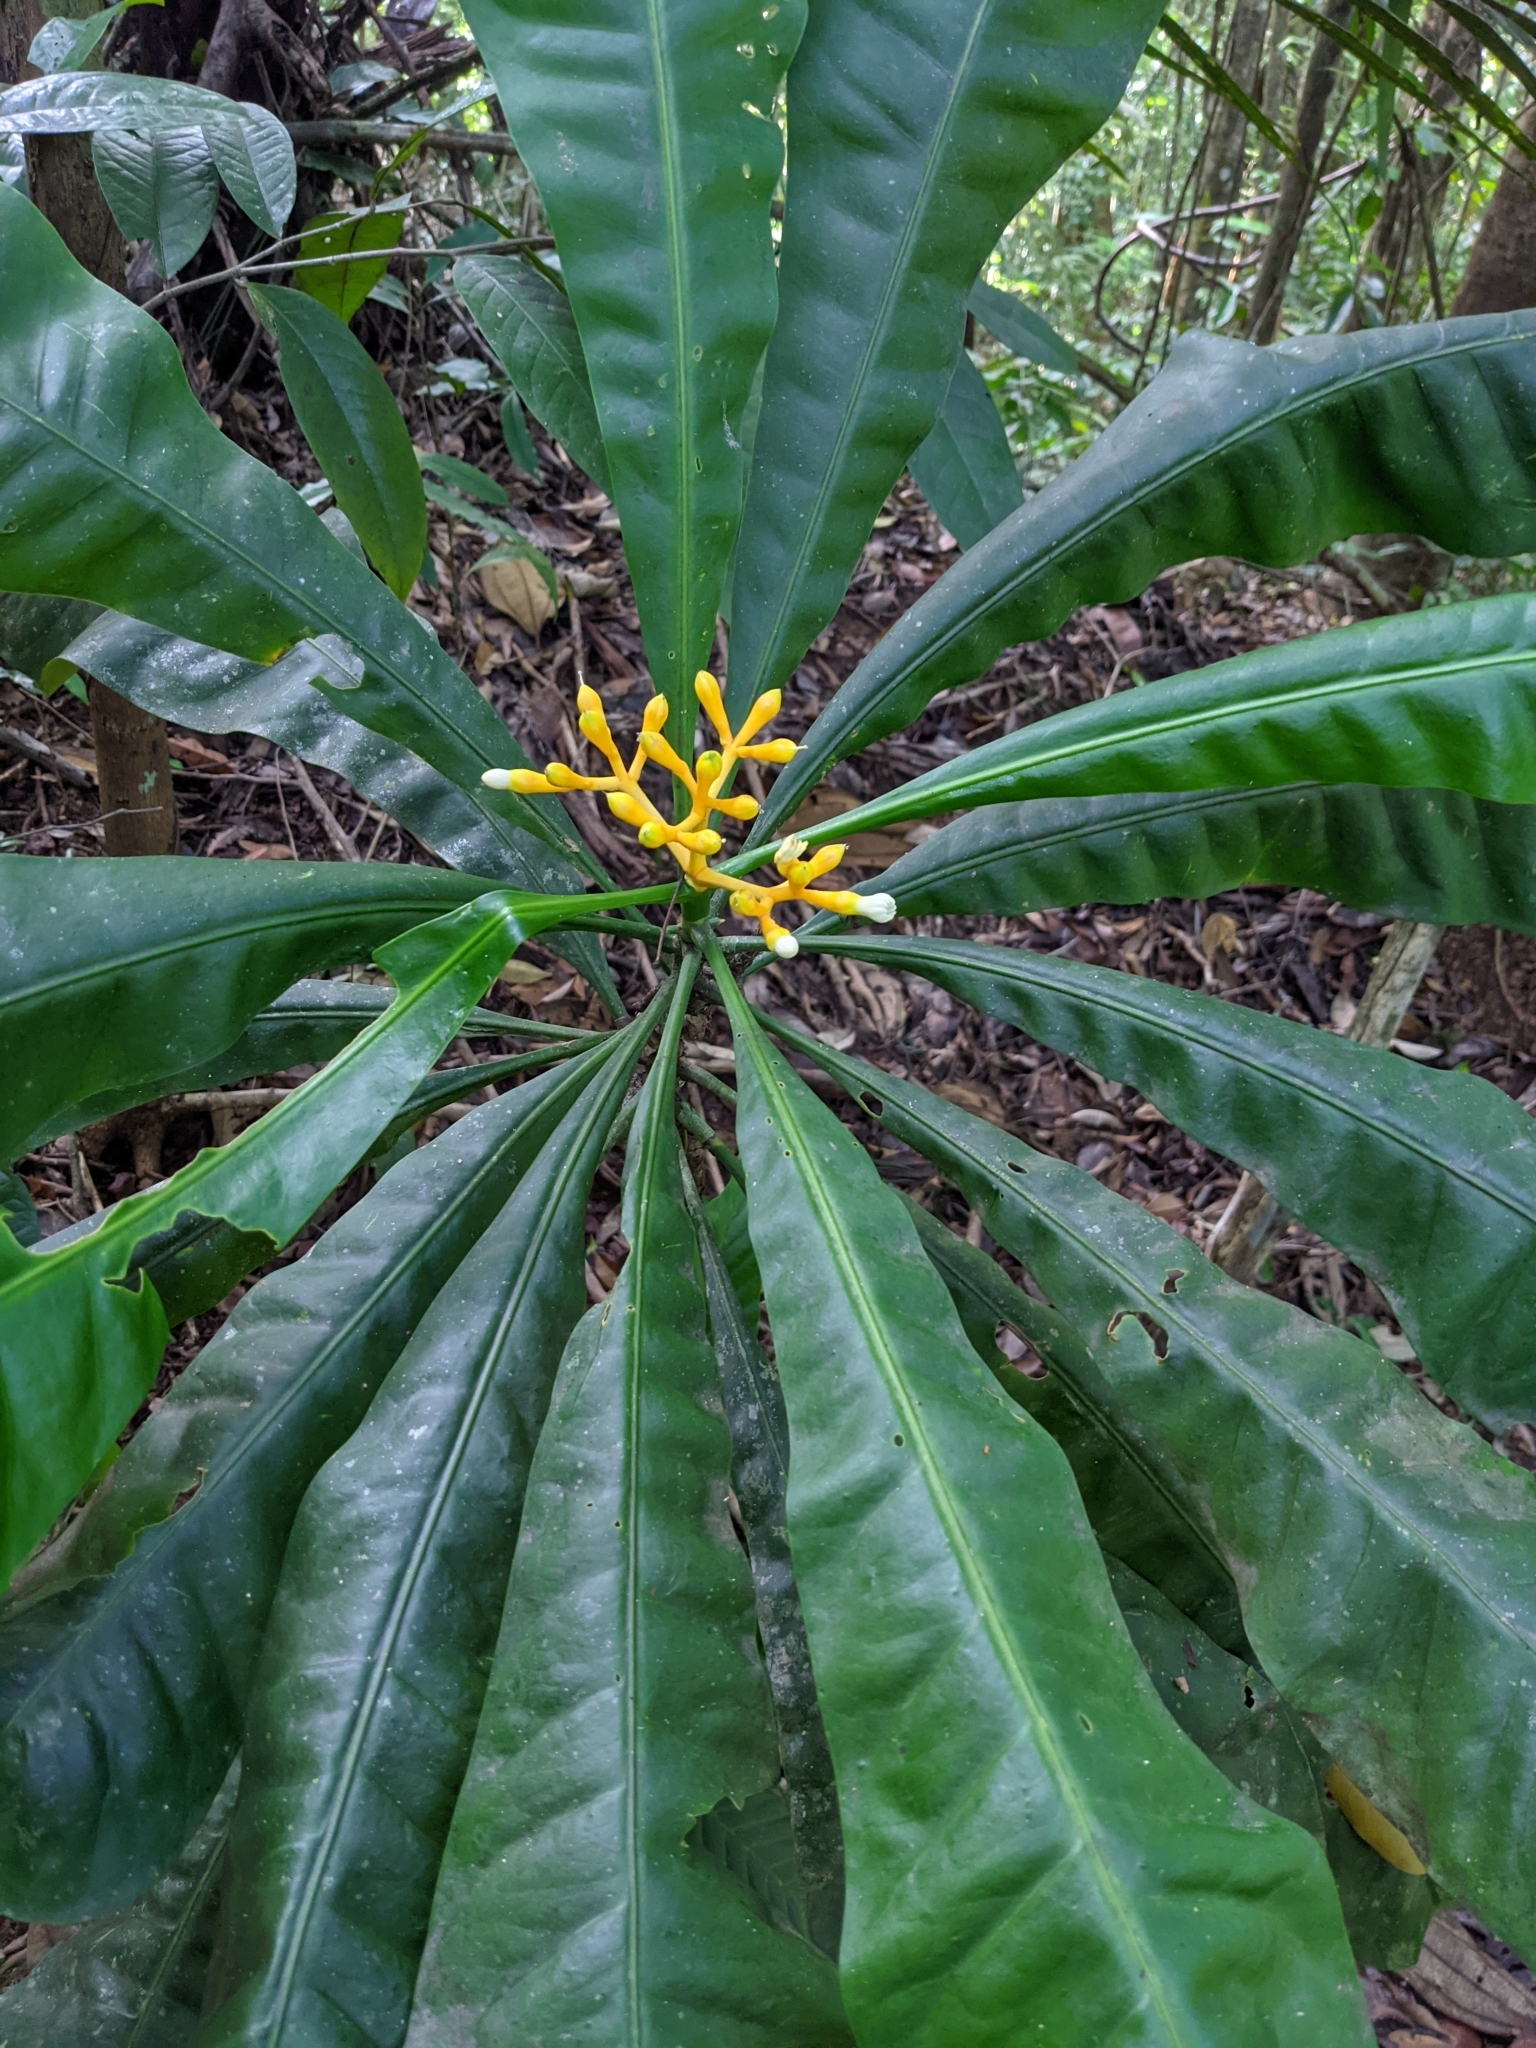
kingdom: Plantae
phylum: Tracheophyta
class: Magnoliopsida
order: Gentianales
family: Gentianaceae
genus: Potalia
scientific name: Potalia amara
